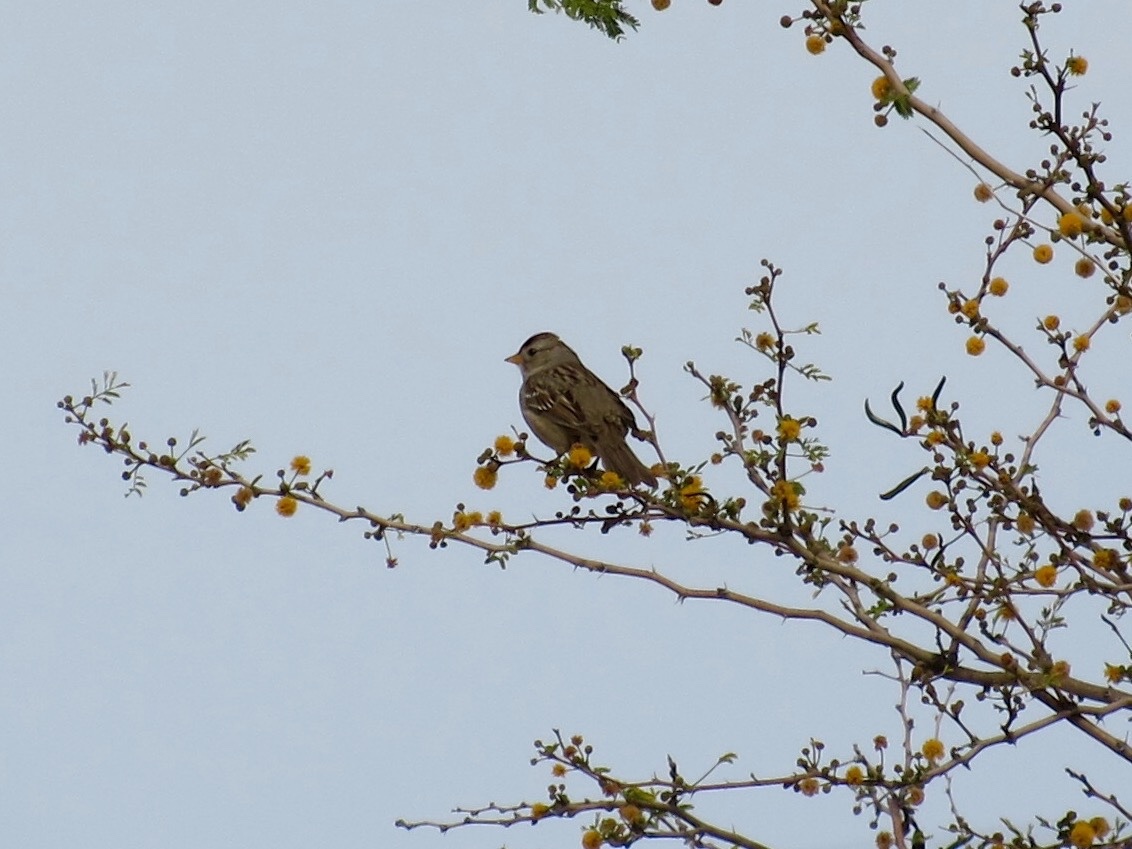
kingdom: Animalia
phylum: Chordata
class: Aves
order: Passeriformes
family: Passerellidae
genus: Zonotrichia
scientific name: Zonotrichia leucophrys
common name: White-crowned sparrow
